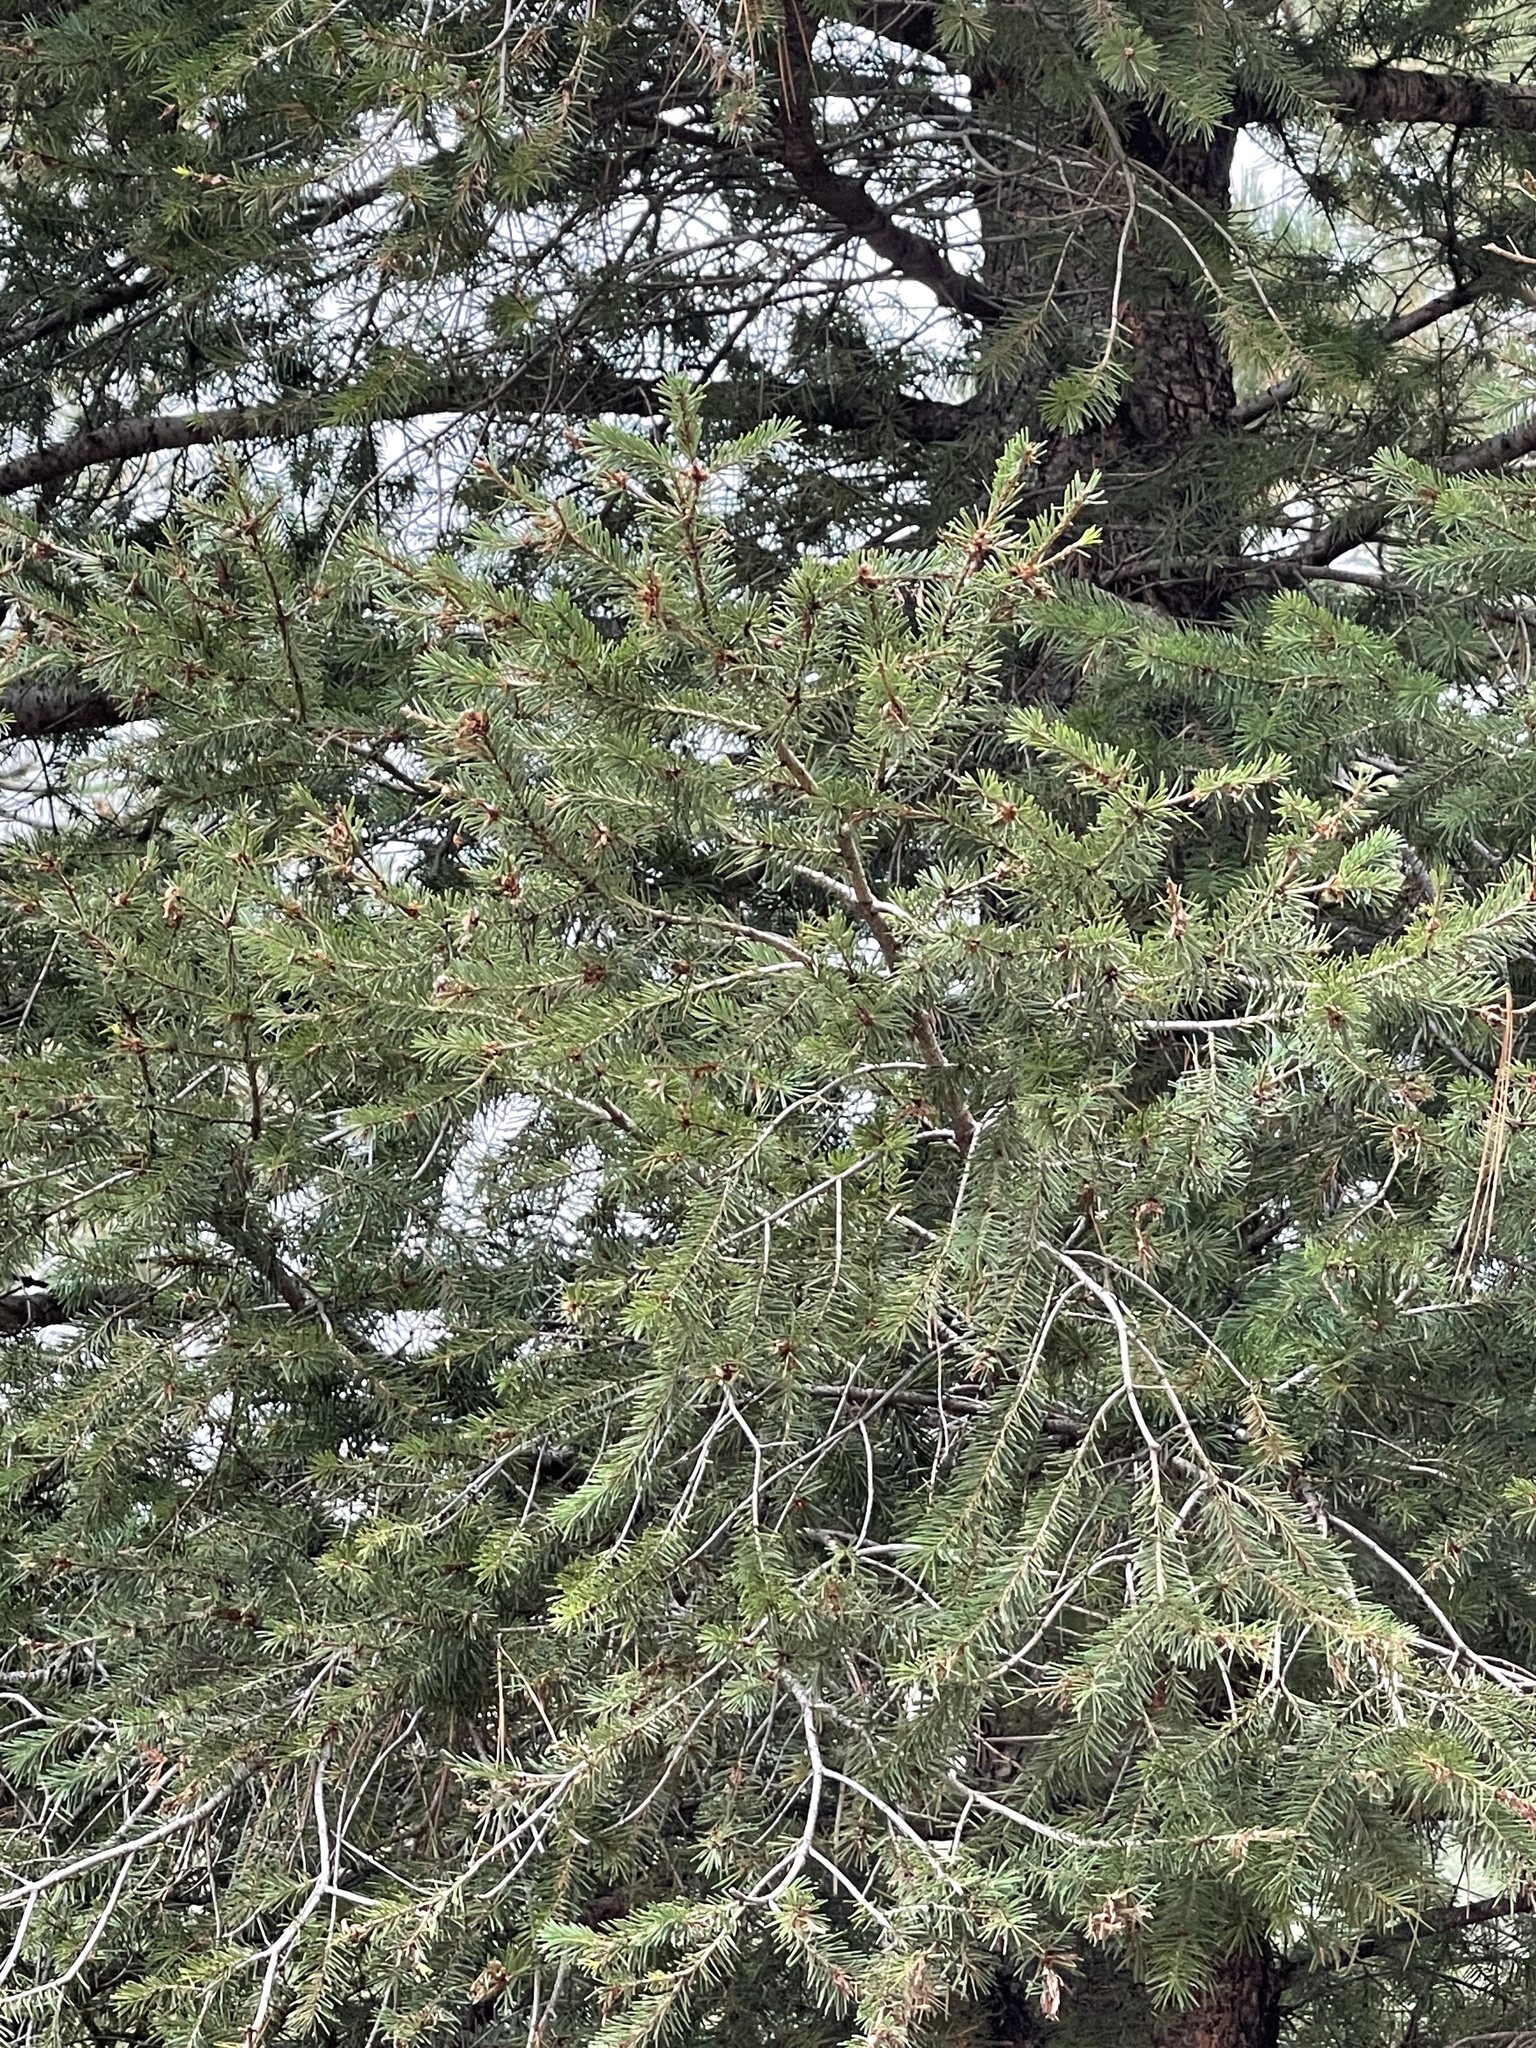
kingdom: Plantae
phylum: Tracheophyta
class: Pinopsida
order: Pinales
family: Pinaceae
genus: Pseudotsuga
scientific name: Pseudotsuga menziesii
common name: Douglas fir
